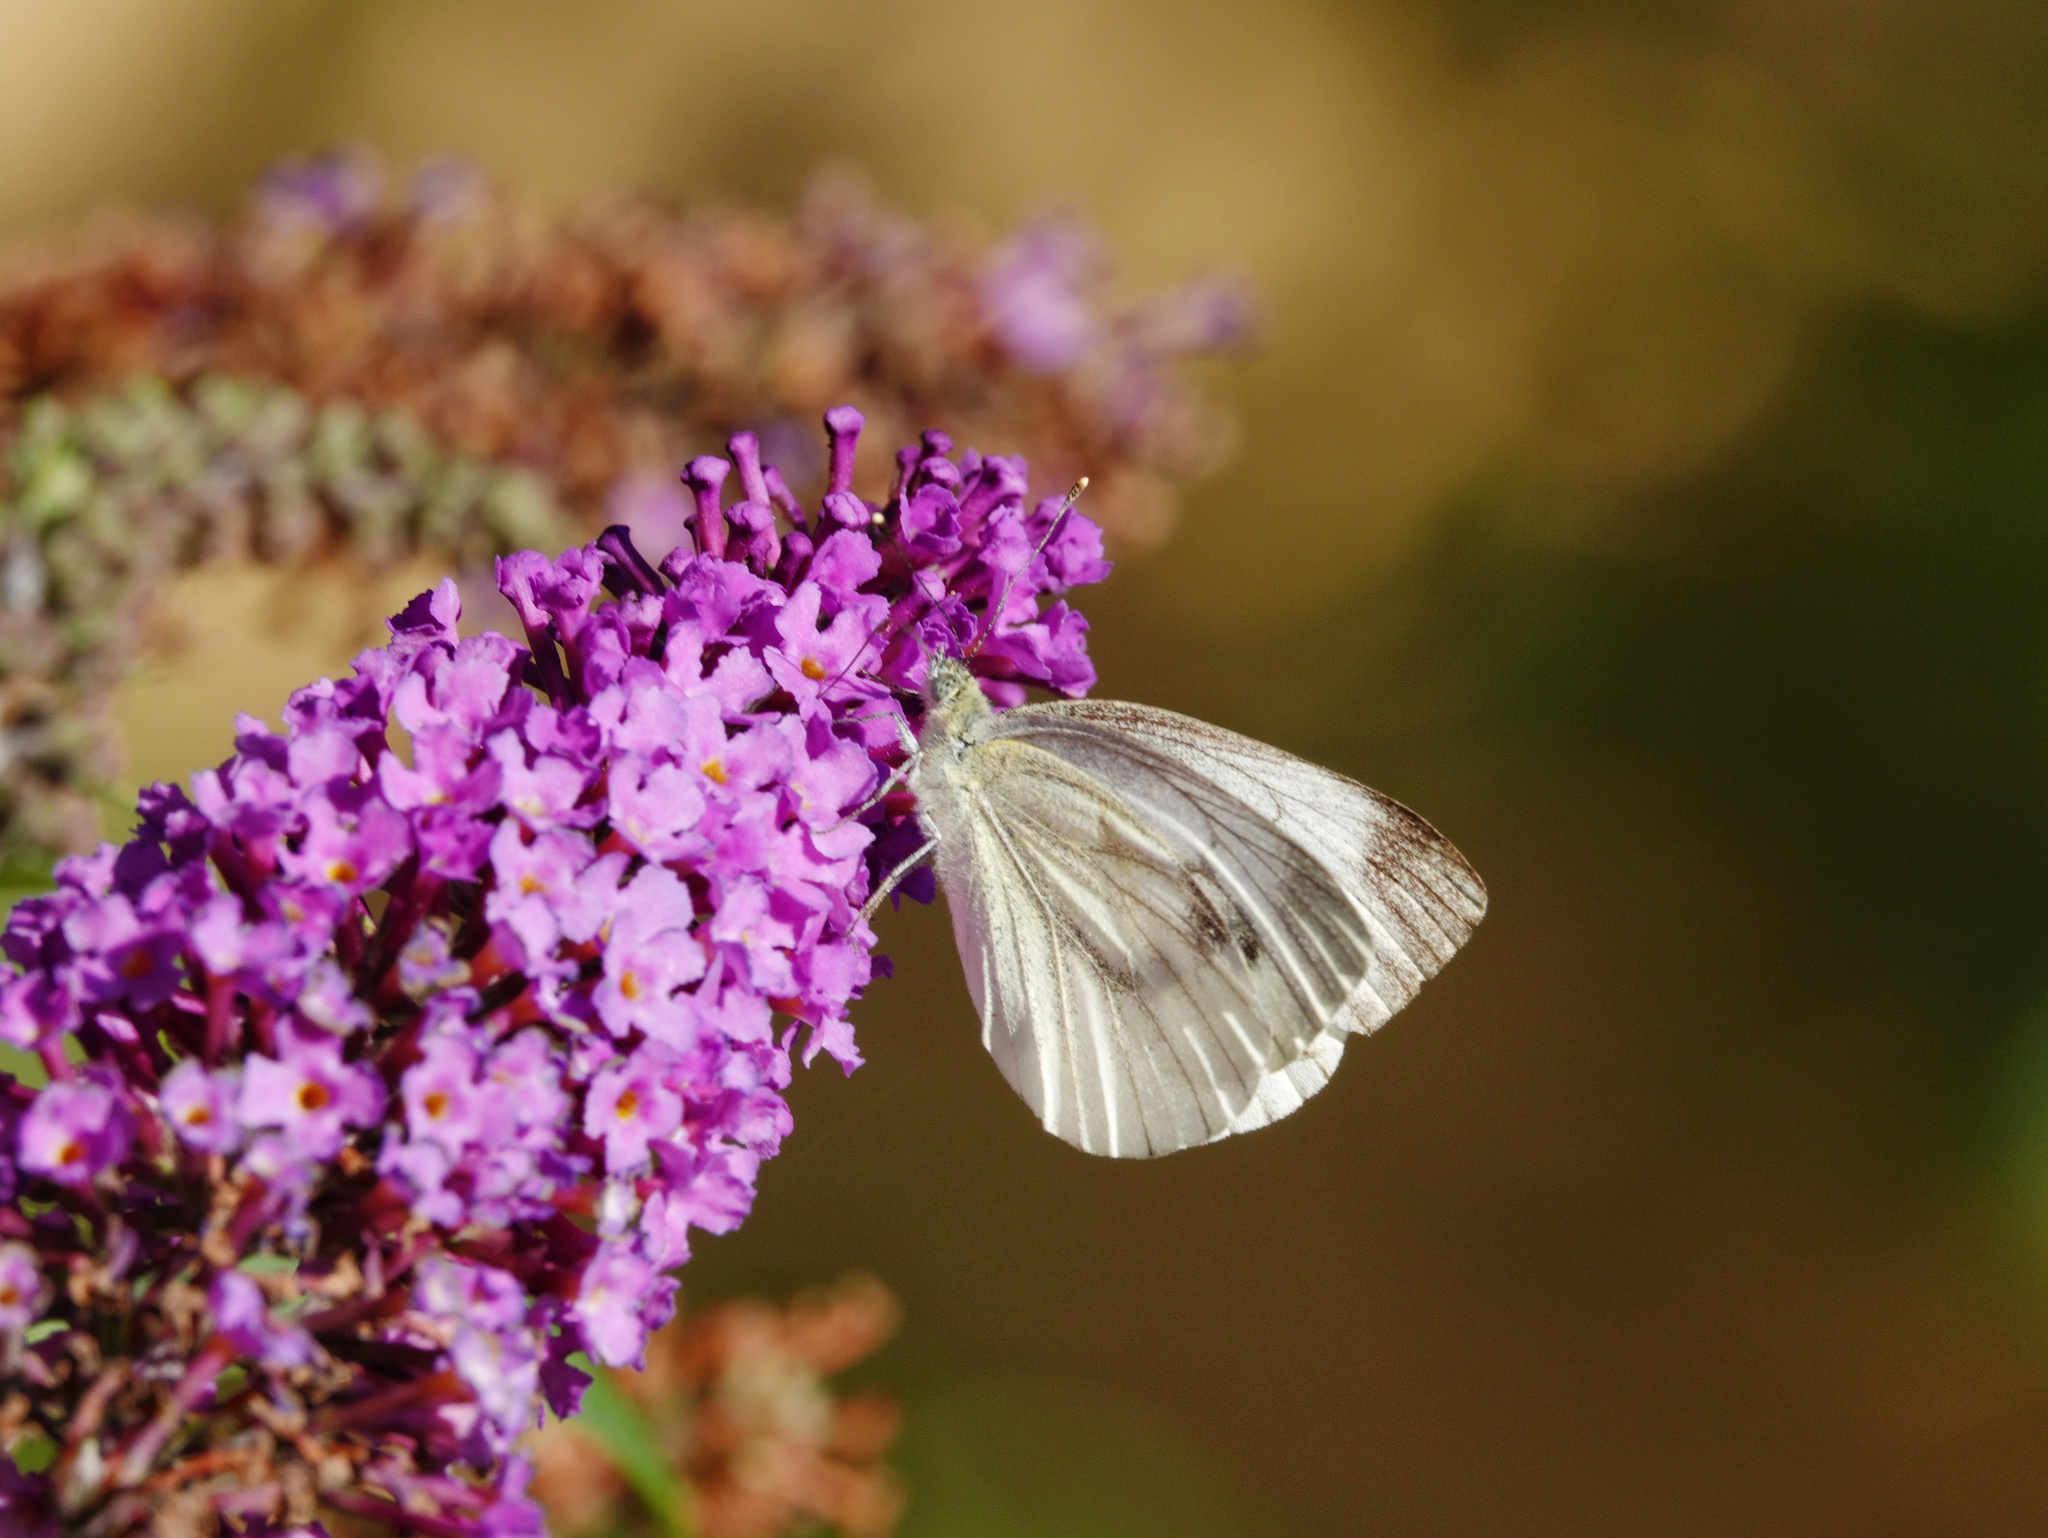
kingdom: Animalia
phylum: Arthropoda
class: Insecta
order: Lepidoptera
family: Pieridae
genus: Pieris
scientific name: Pieris napi
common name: Green-veined white
